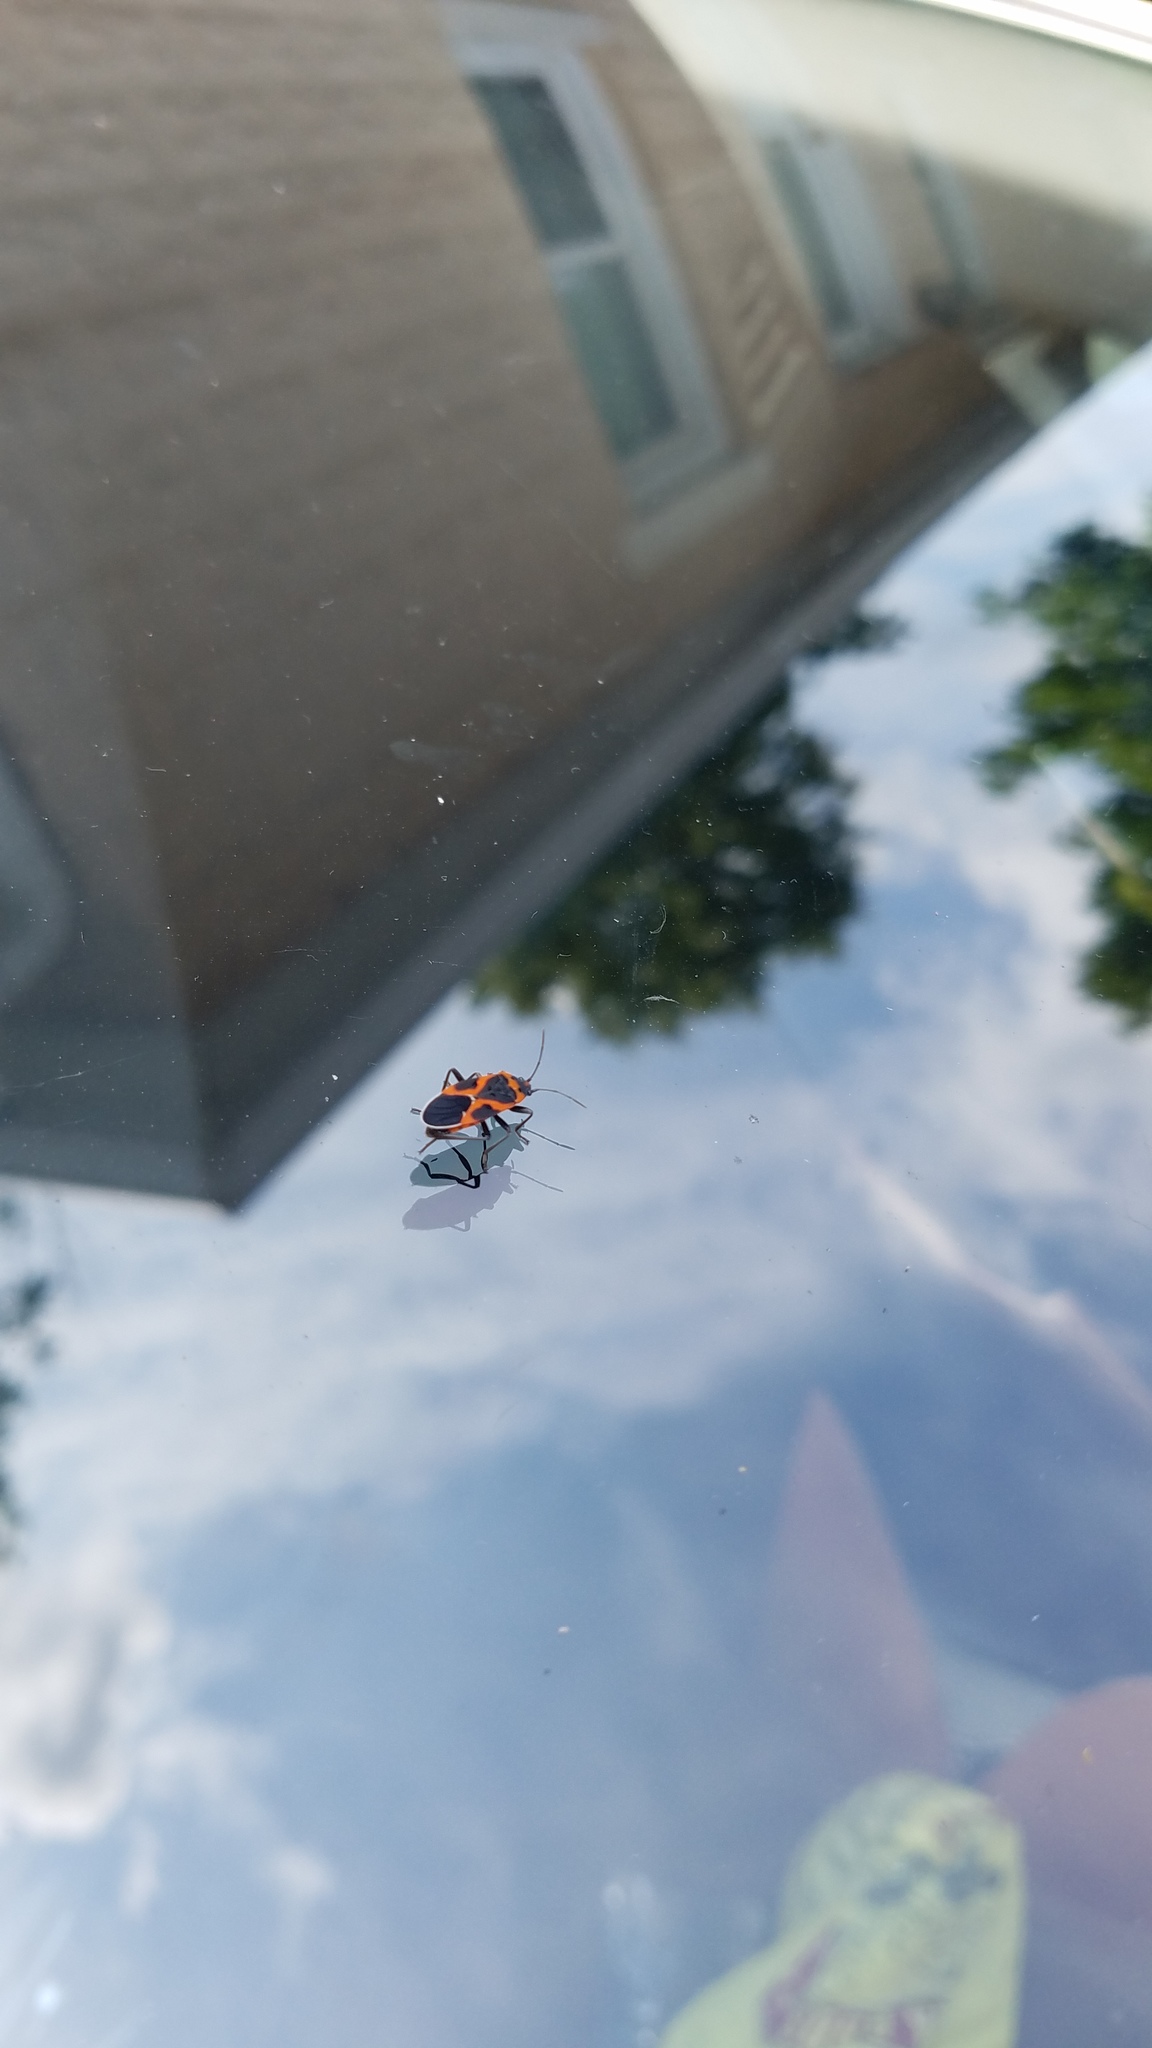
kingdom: Animalia
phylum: Arthropoda
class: Insecta
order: Hemiptera
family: Lygaeidae
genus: Lygaeus
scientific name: Lygaeus kalmii
